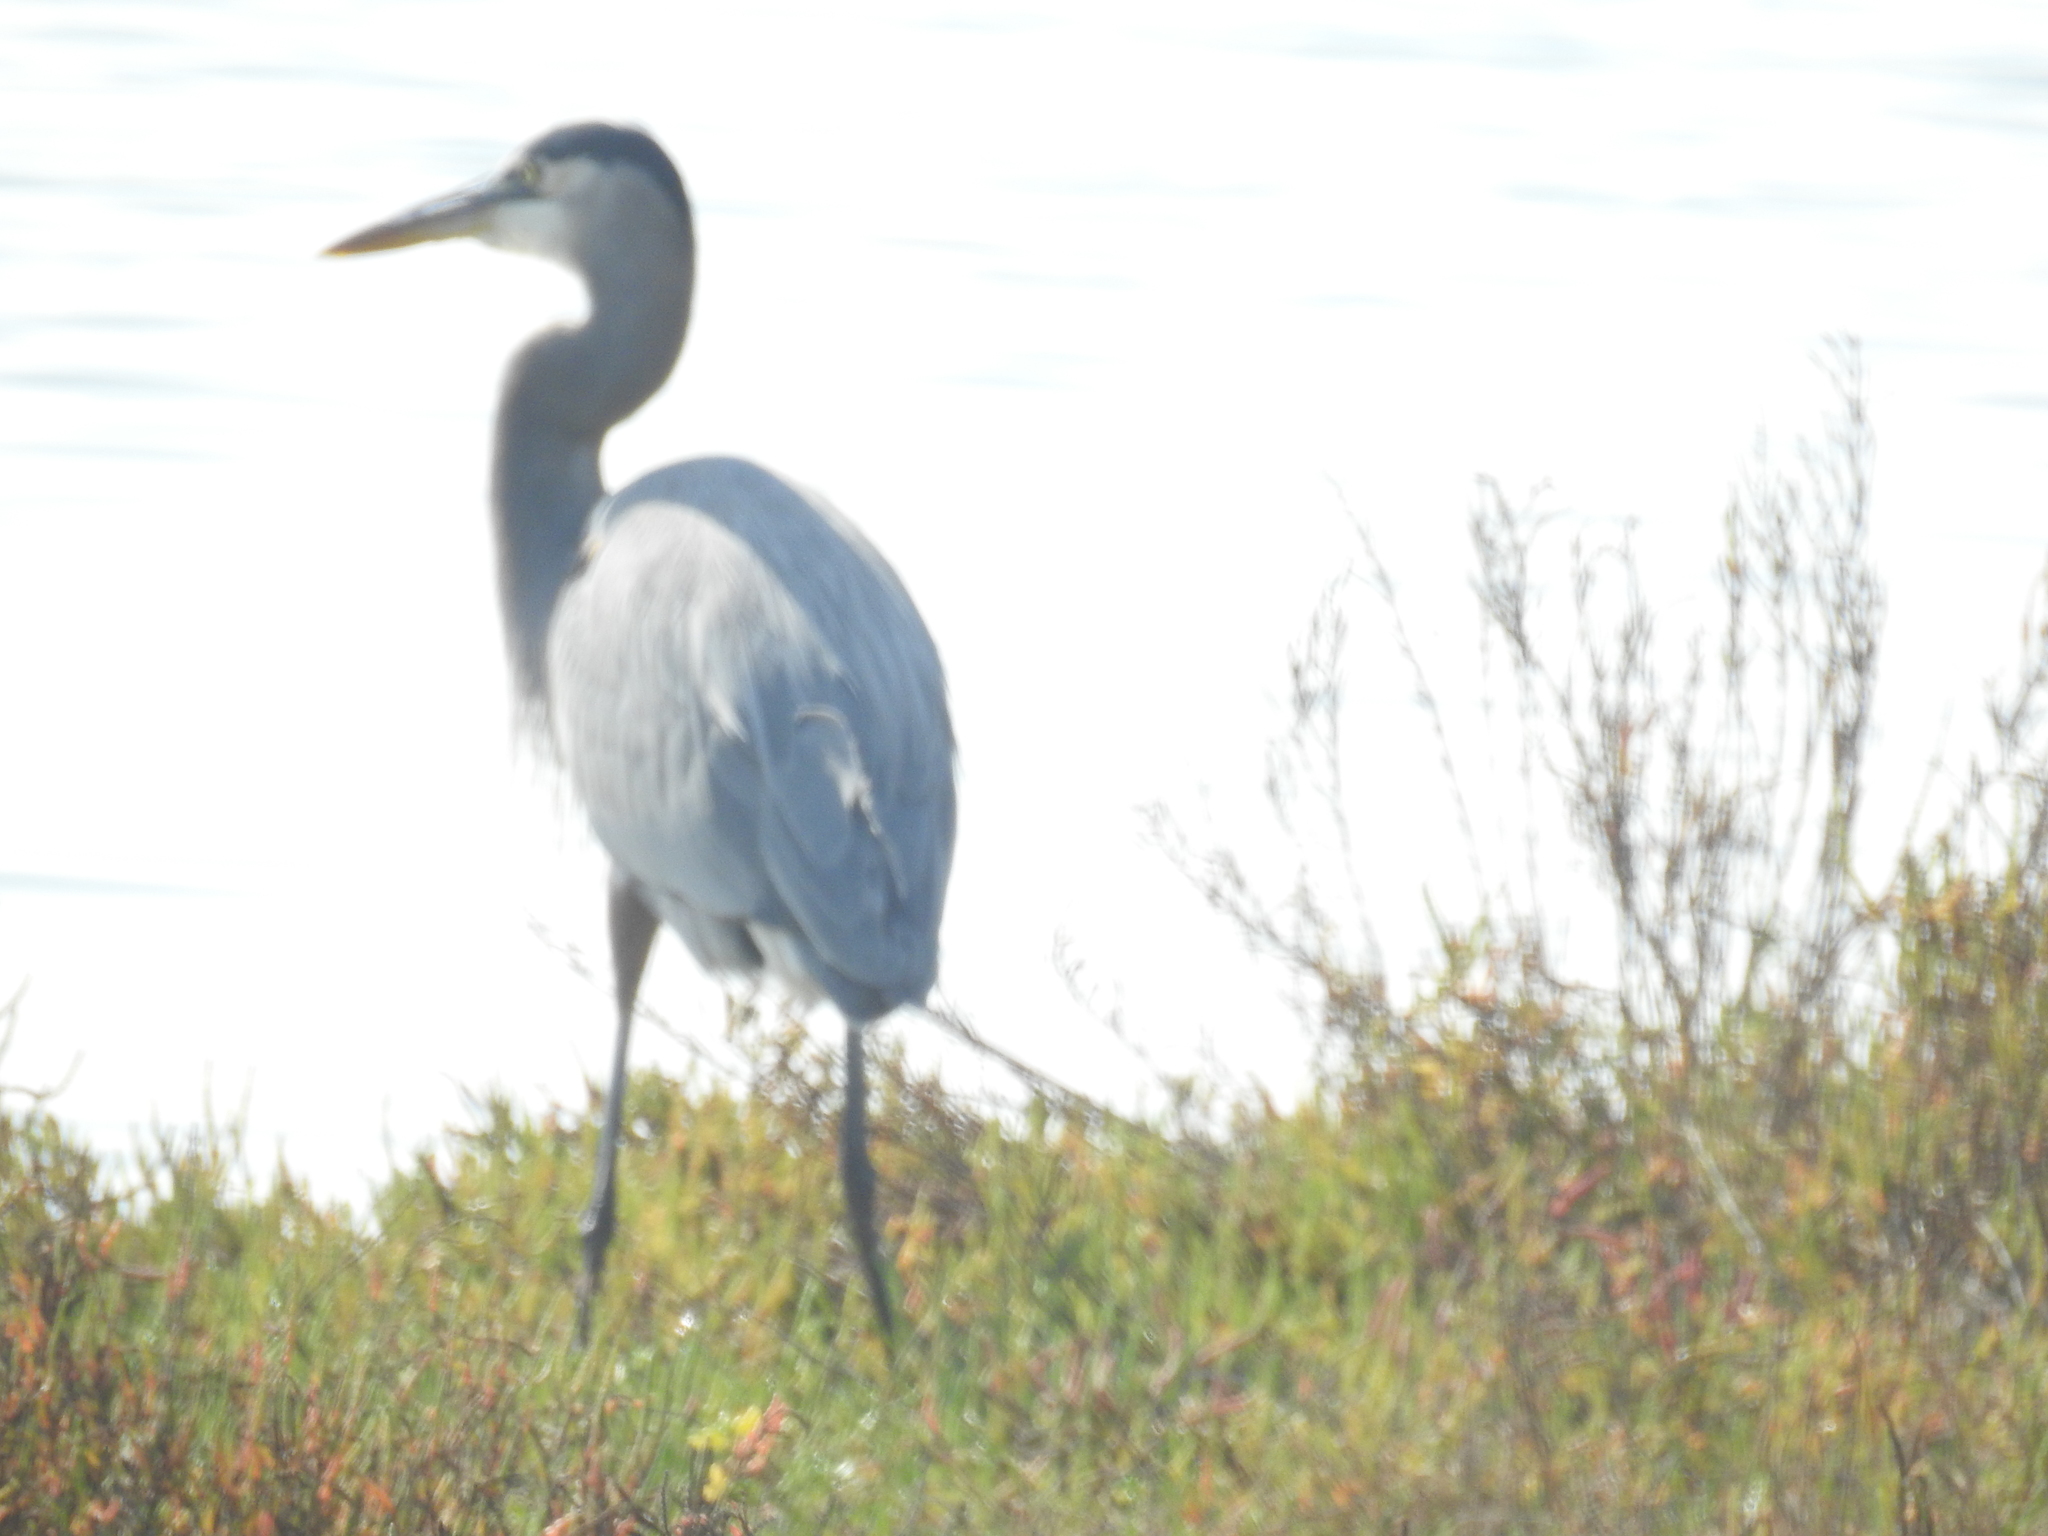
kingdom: Animalia
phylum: Chordata
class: Aves
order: Pelecaniformes
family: Ardeidae
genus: Ardea
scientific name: Ardea herodias
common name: Great blue heron
